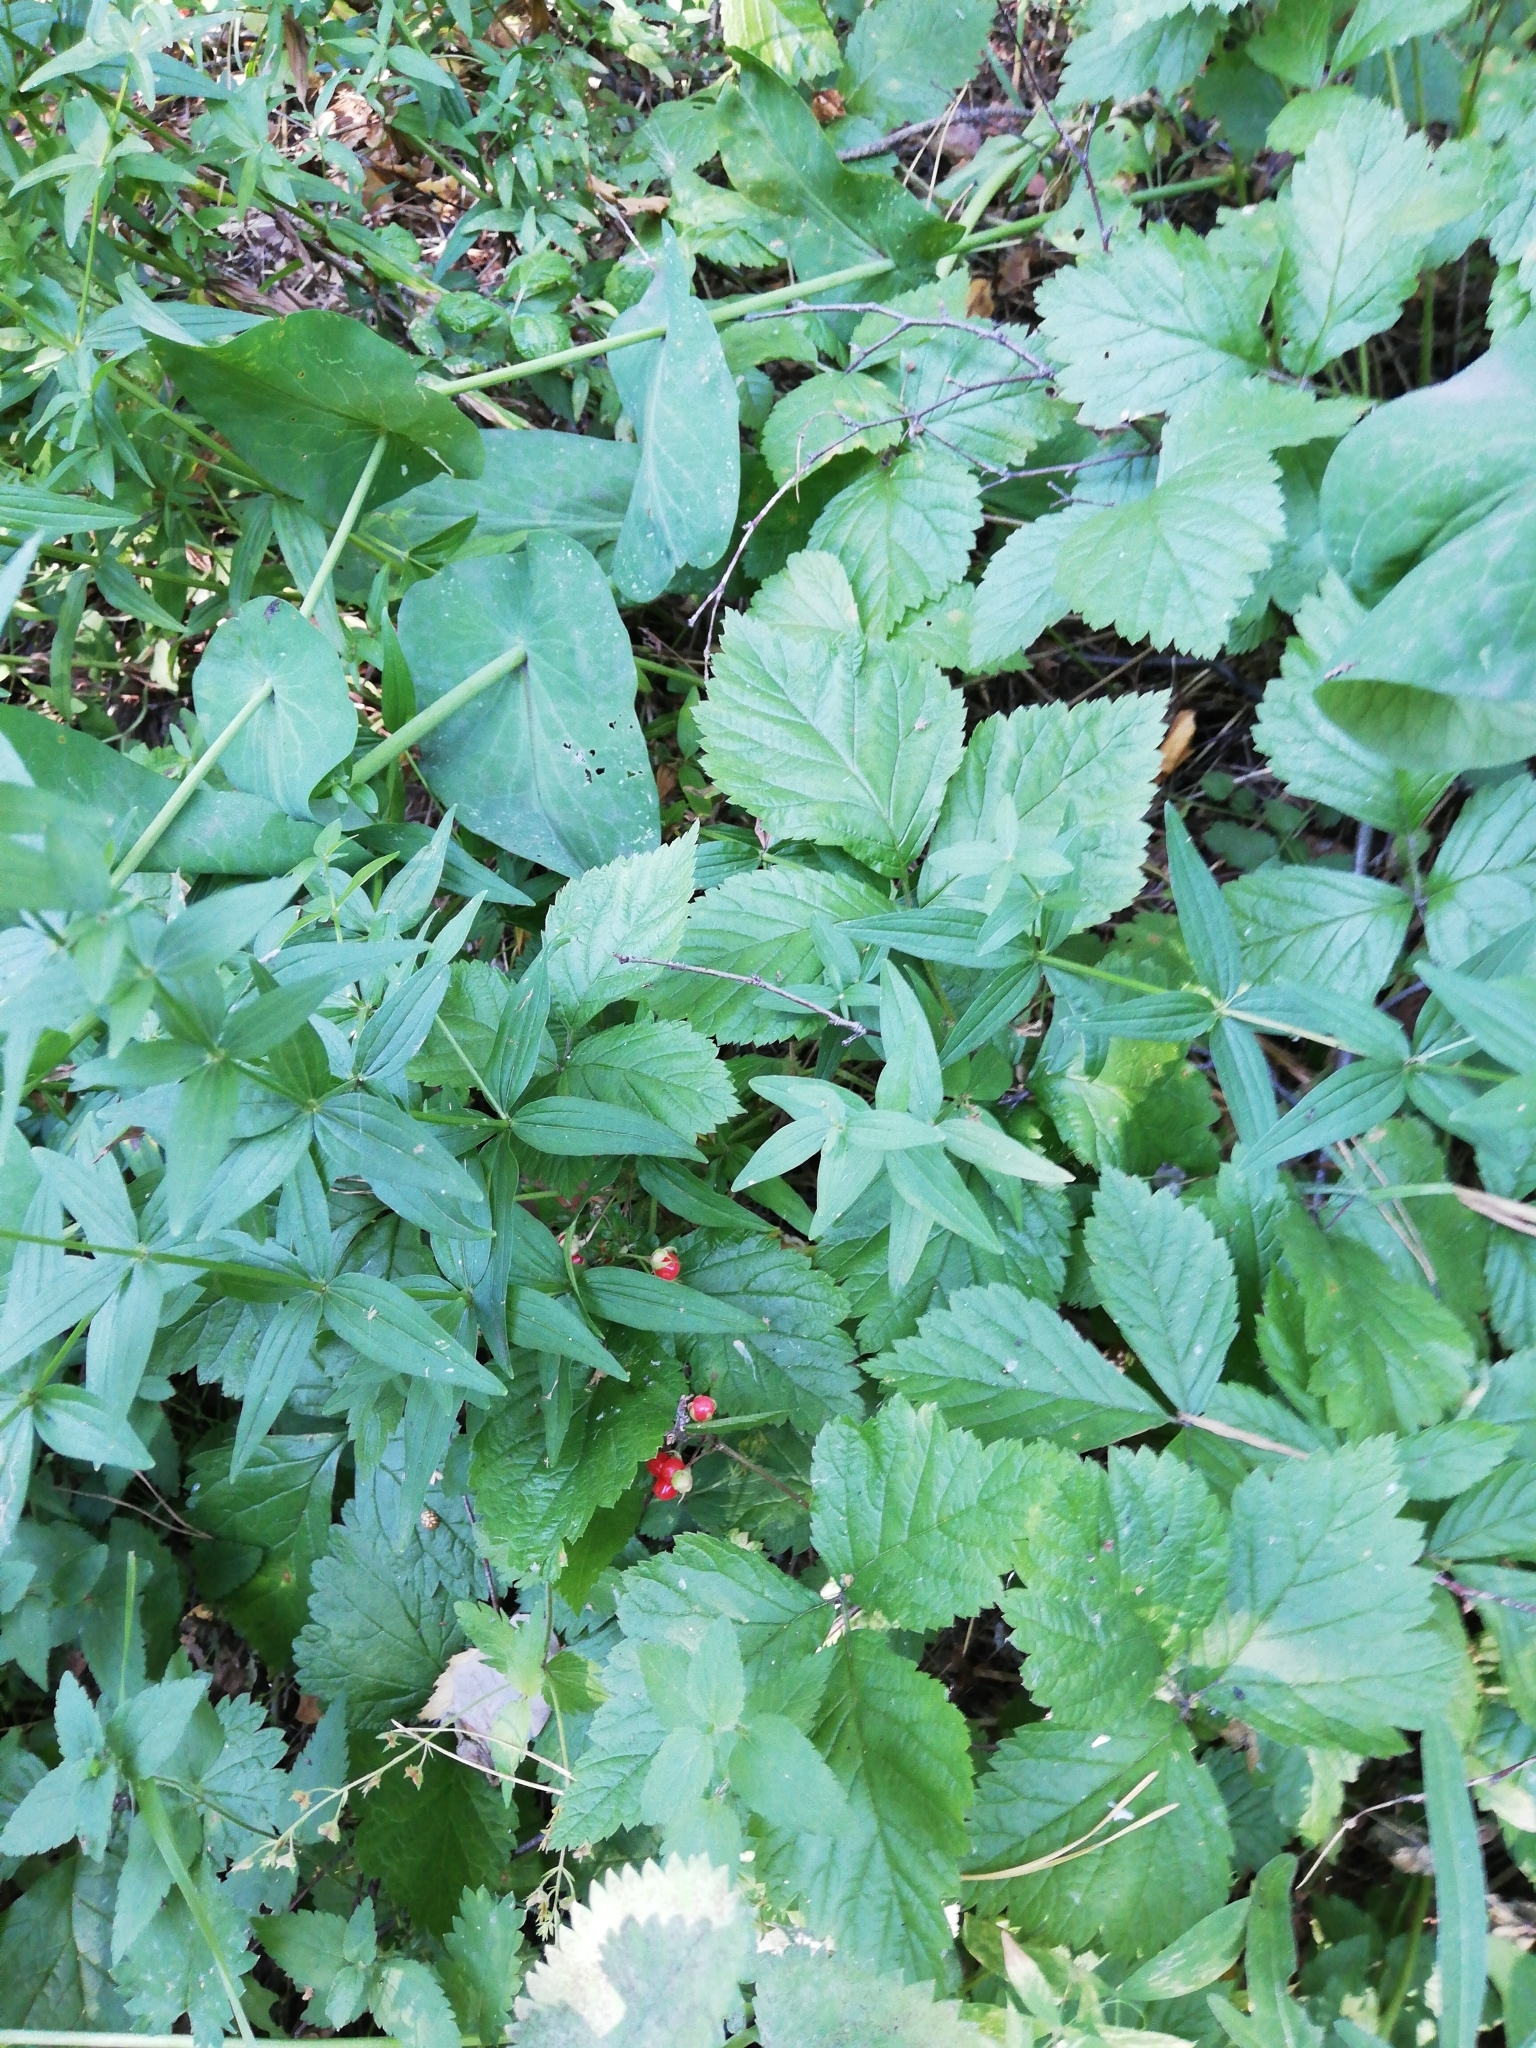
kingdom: Plantae
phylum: Tracheophyta
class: Magnoliopsida
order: Rosales
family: Rosaceae
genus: Rubus
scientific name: Rubus saxatilis
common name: Stone bramble
